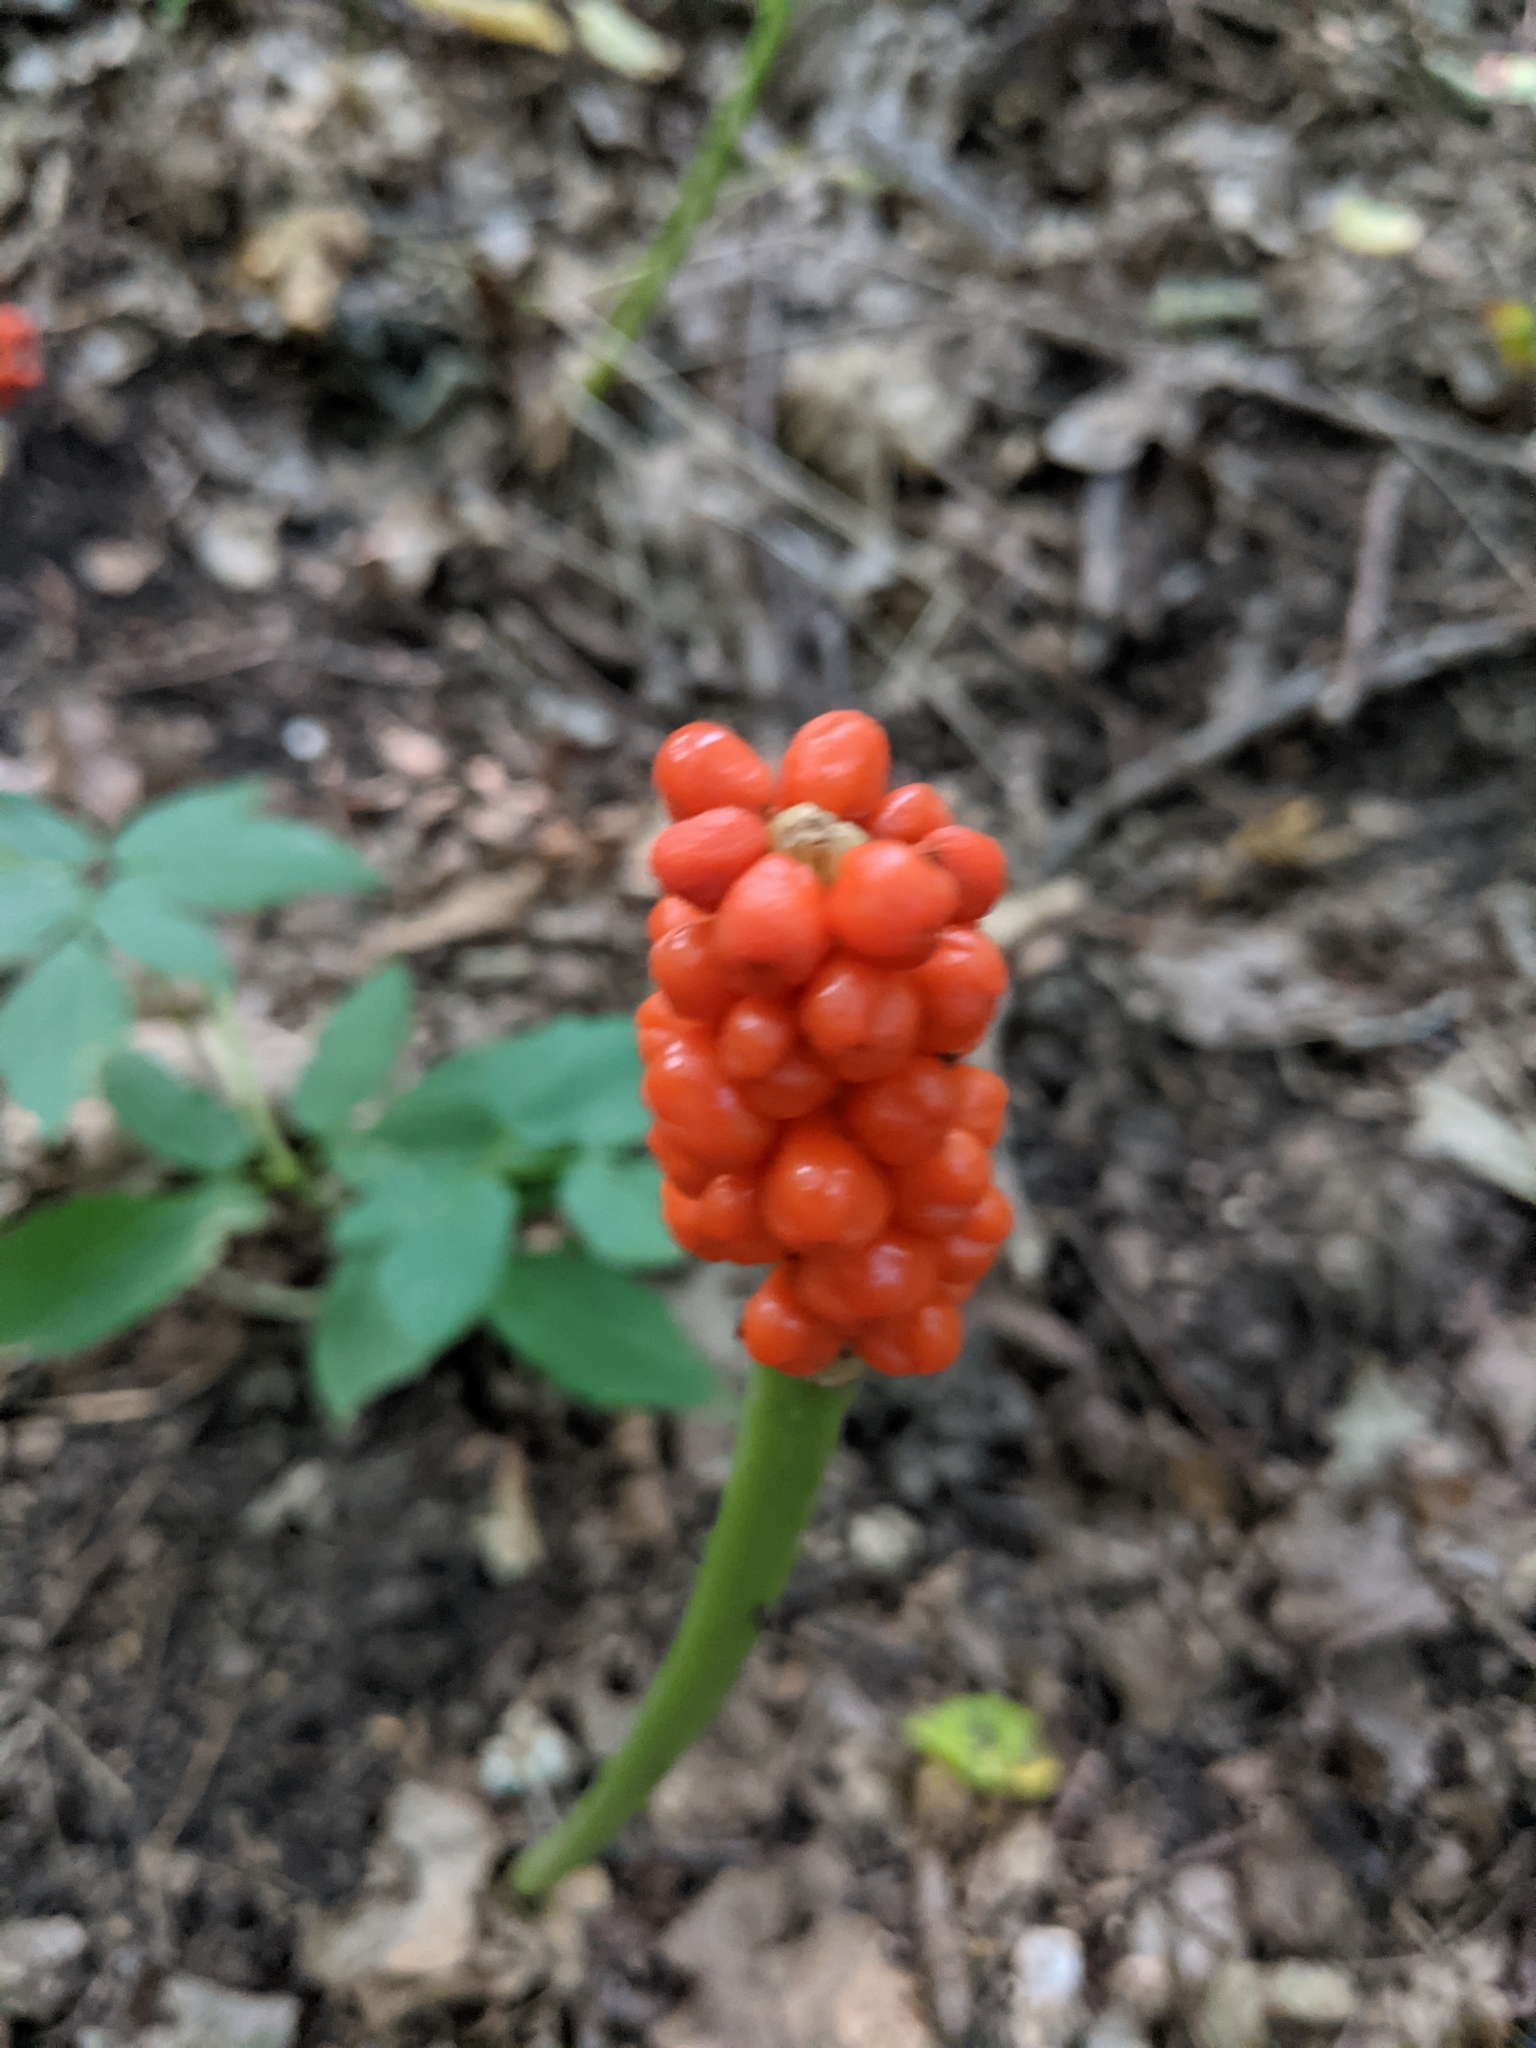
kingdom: Plantae
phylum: Tracheophyta
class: Liliopsida
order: Alismatales
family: Araceae
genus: Arum
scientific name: Arum besserianum
